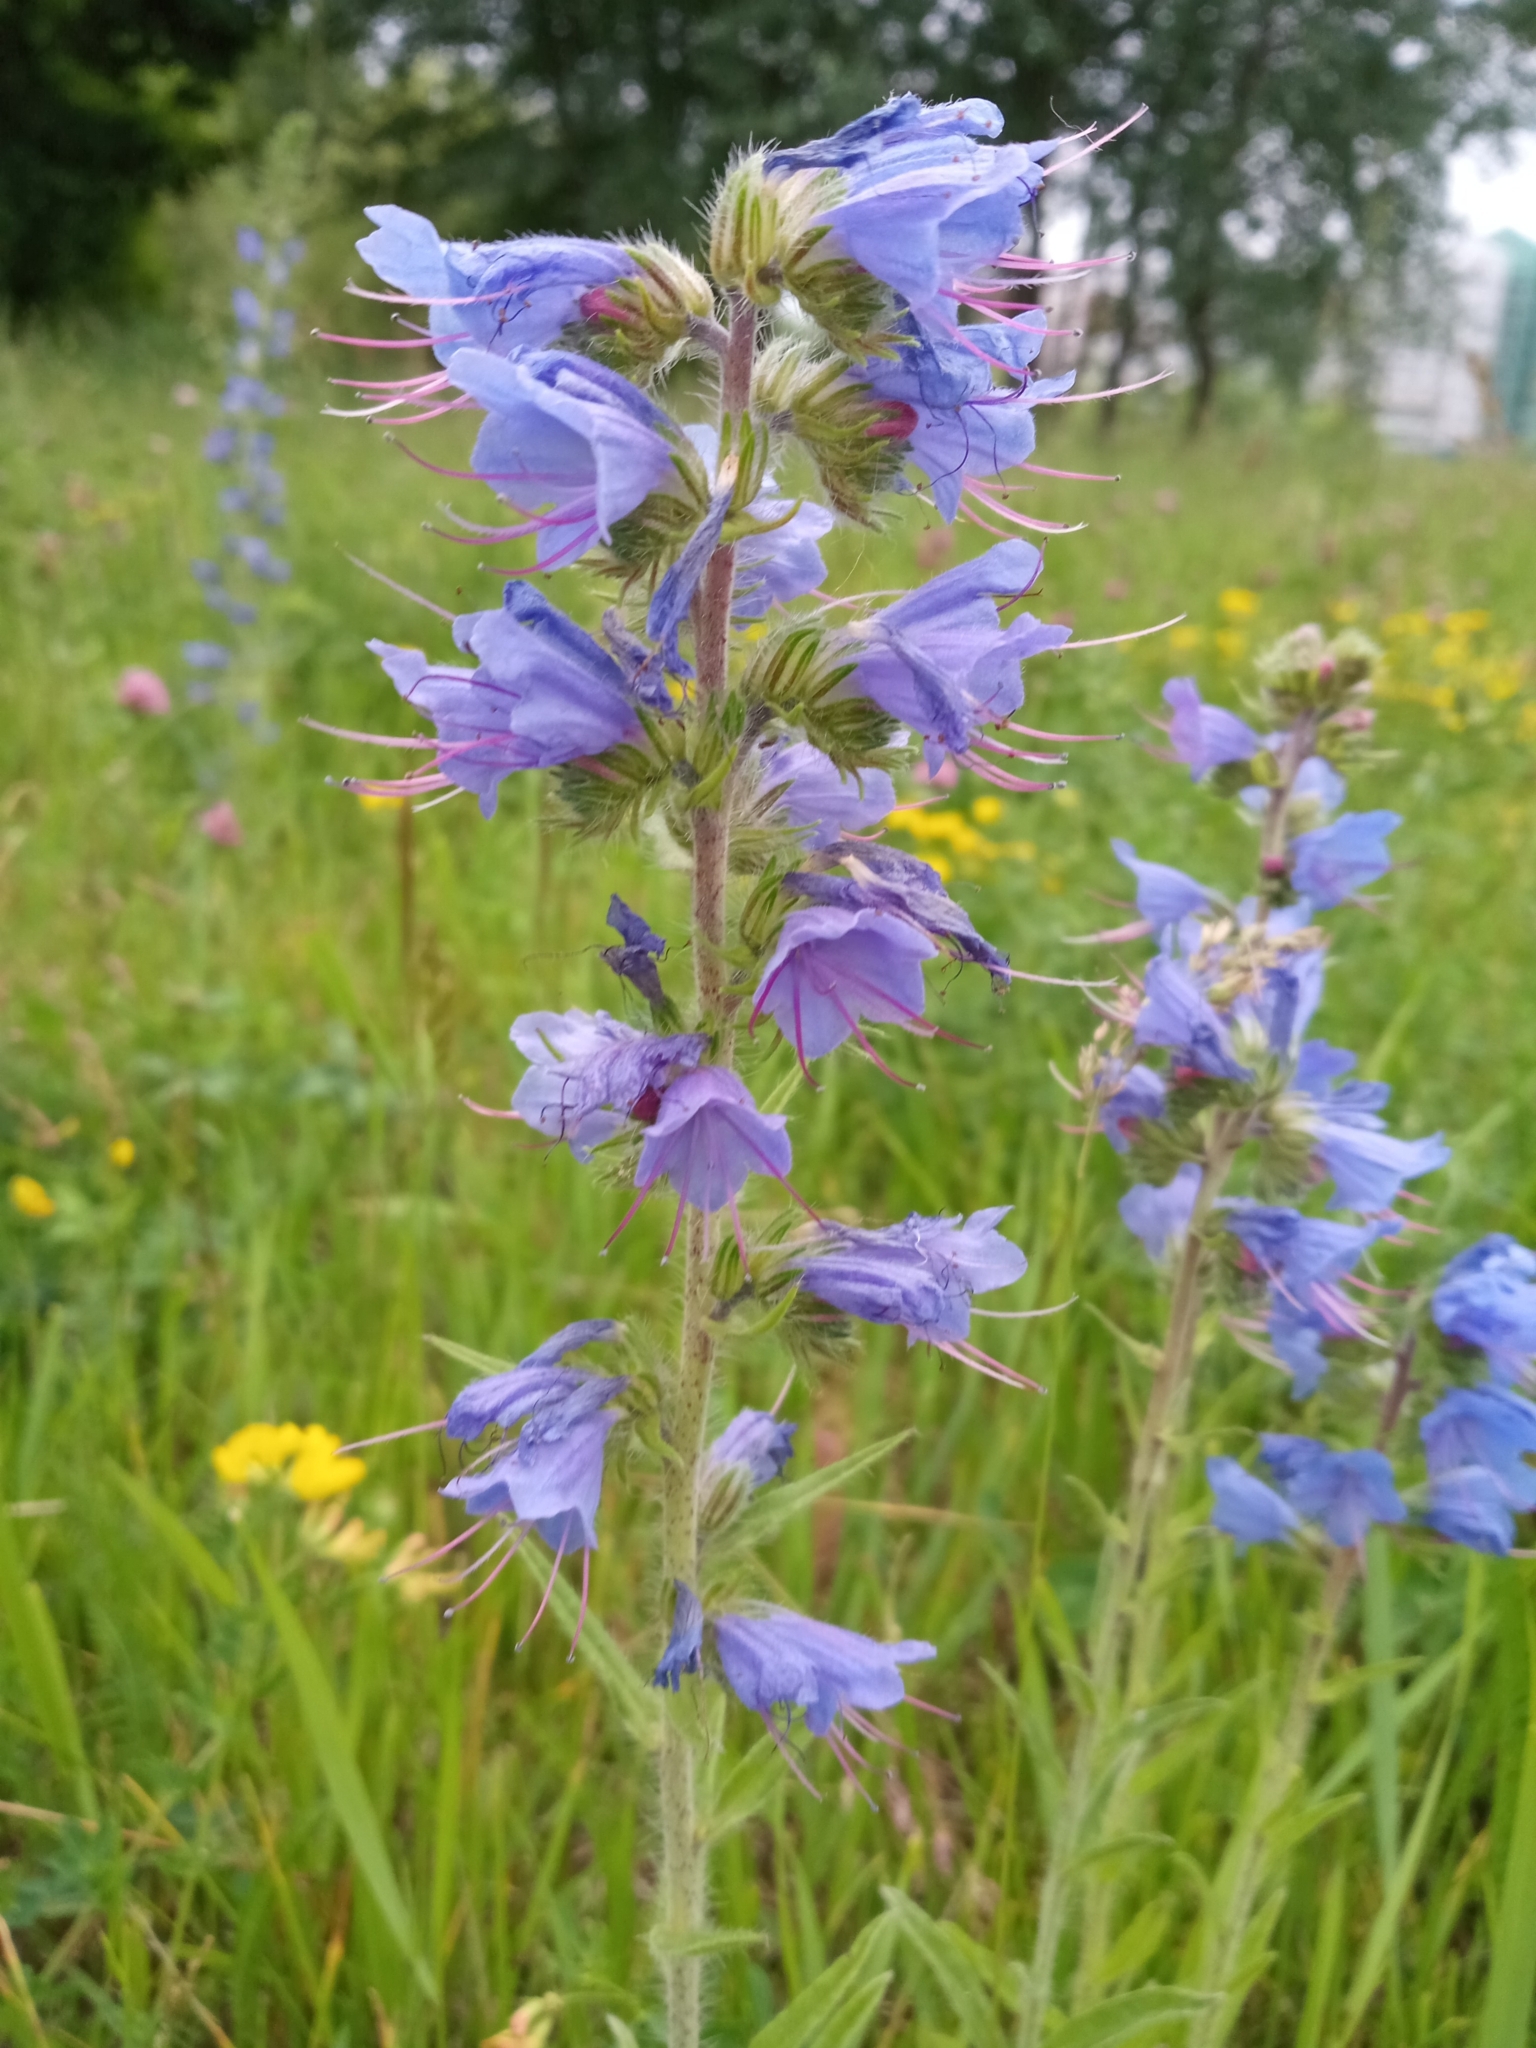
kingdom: Plantae
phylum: Tracheophyta
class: Magnoliopsida
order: Boraginales
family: Boraginaceae
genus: Echium
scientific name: Echium vulgare
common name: Common viper's bugloss
